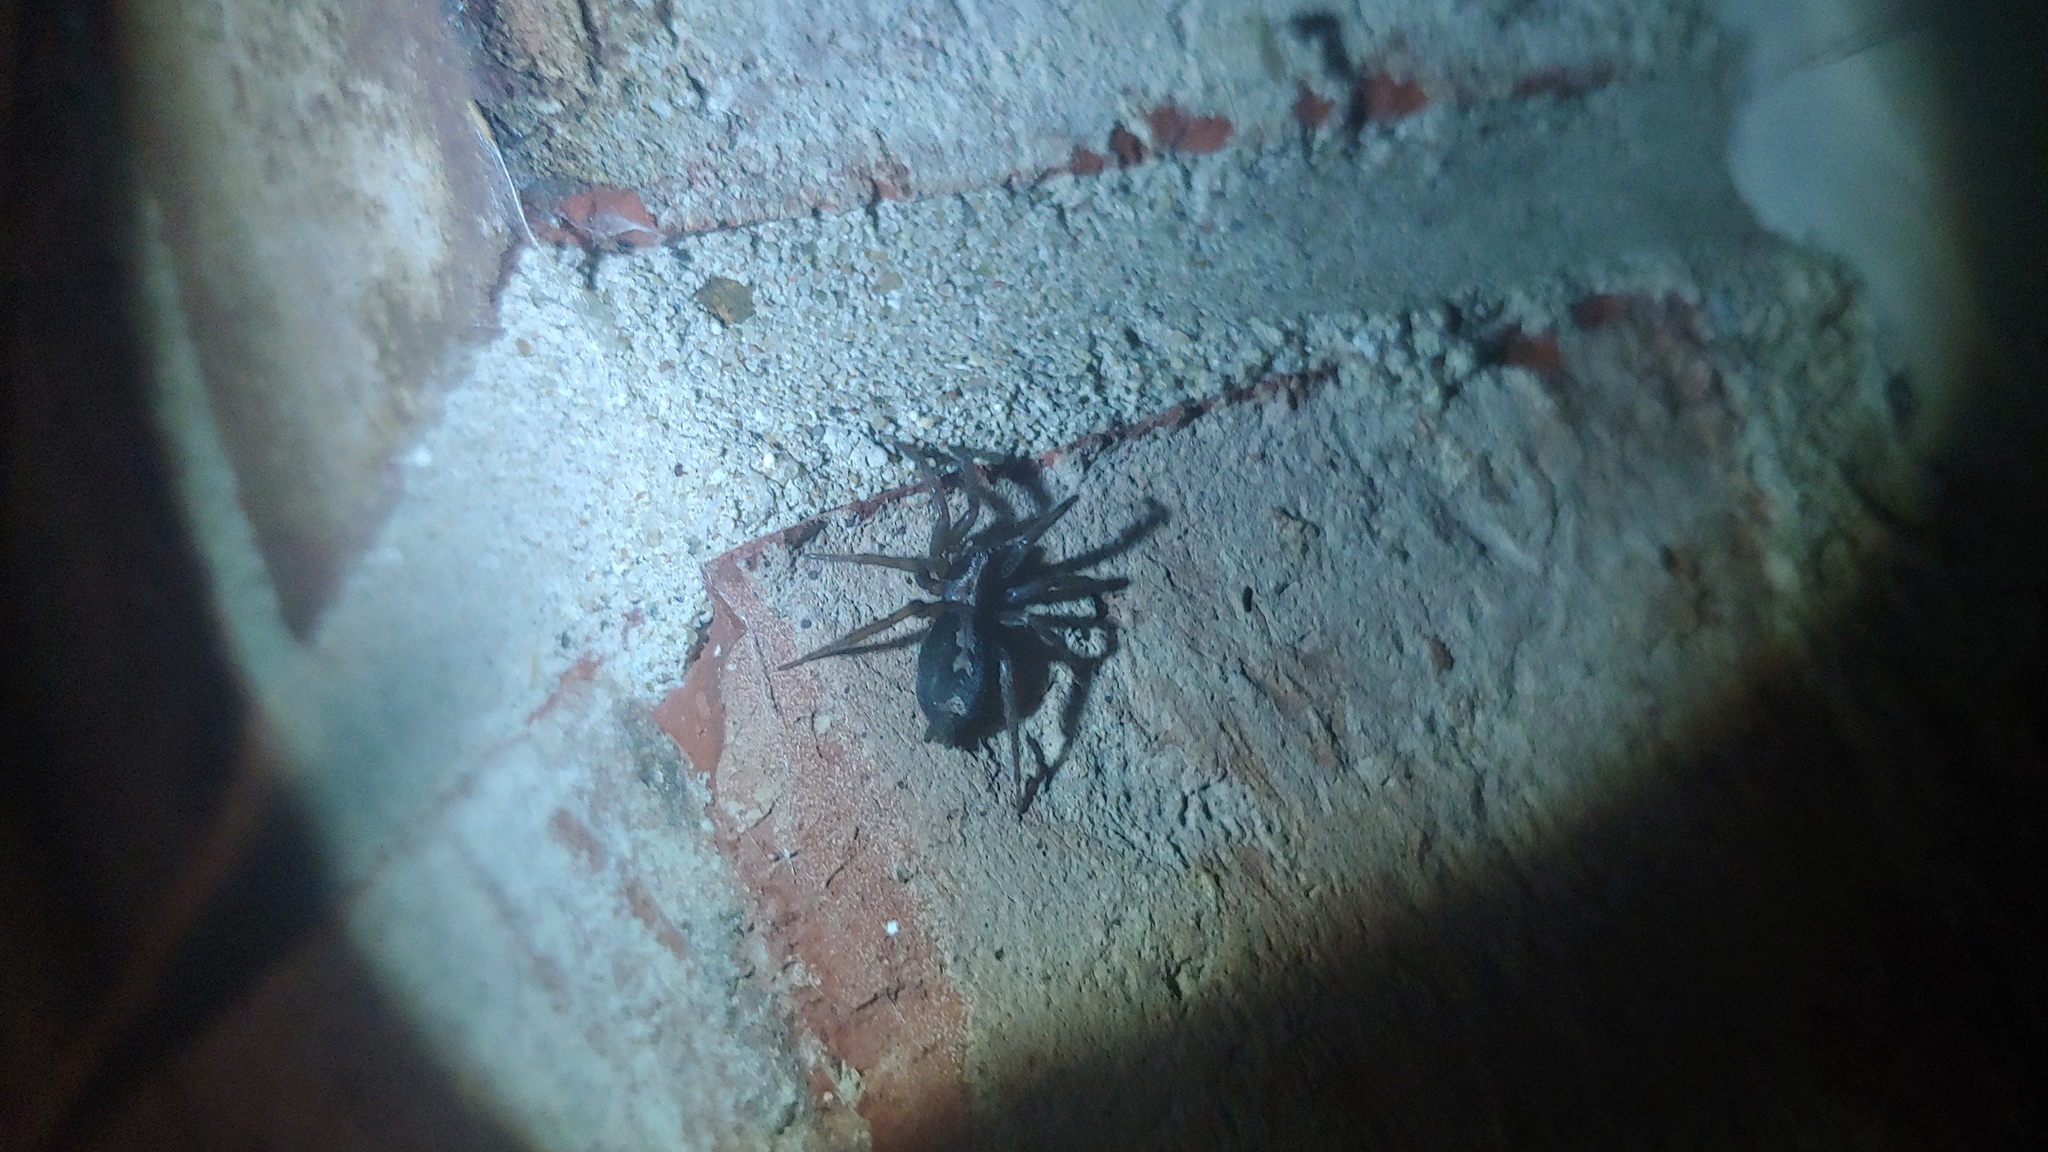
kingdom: Animalia
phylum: Arthropoda
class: Arachnida
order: Araneae
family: Gnaphosidae
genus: Herpyllus
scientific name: Herpyllus ecclesiasticus
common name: Eastern parson spider
